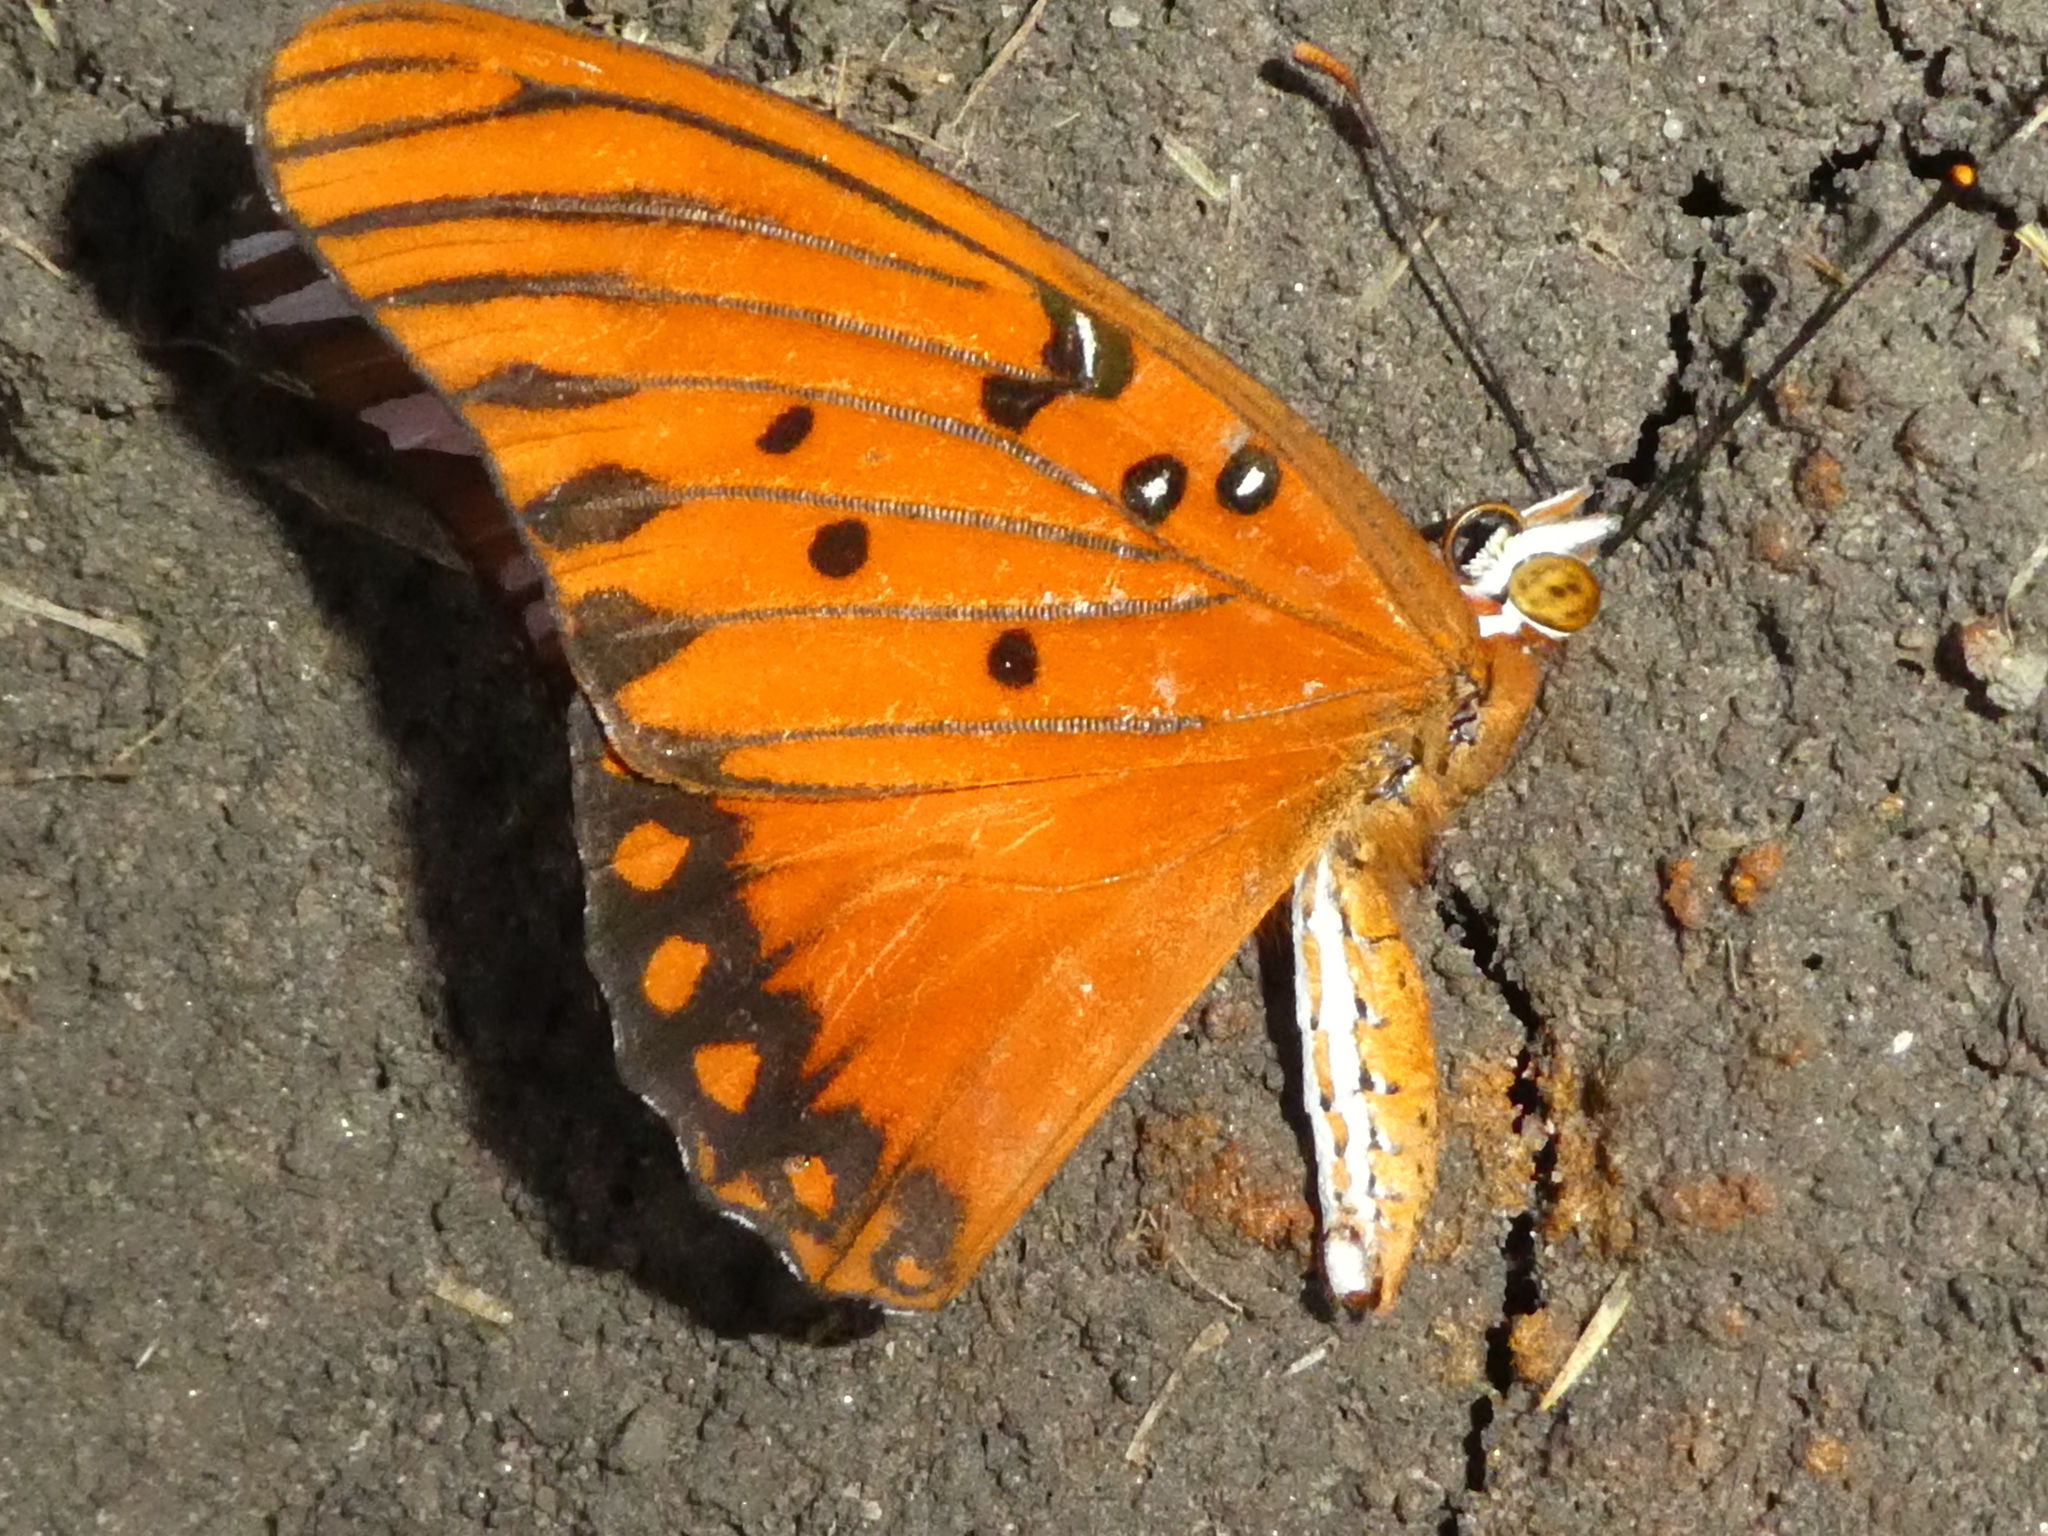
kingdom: Animalia
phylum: Arthropoda
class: Insecta
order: Lepidoptera
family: Nymphalidae
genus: Dione
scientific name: Dione vanillae
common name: Gulf fritillary
